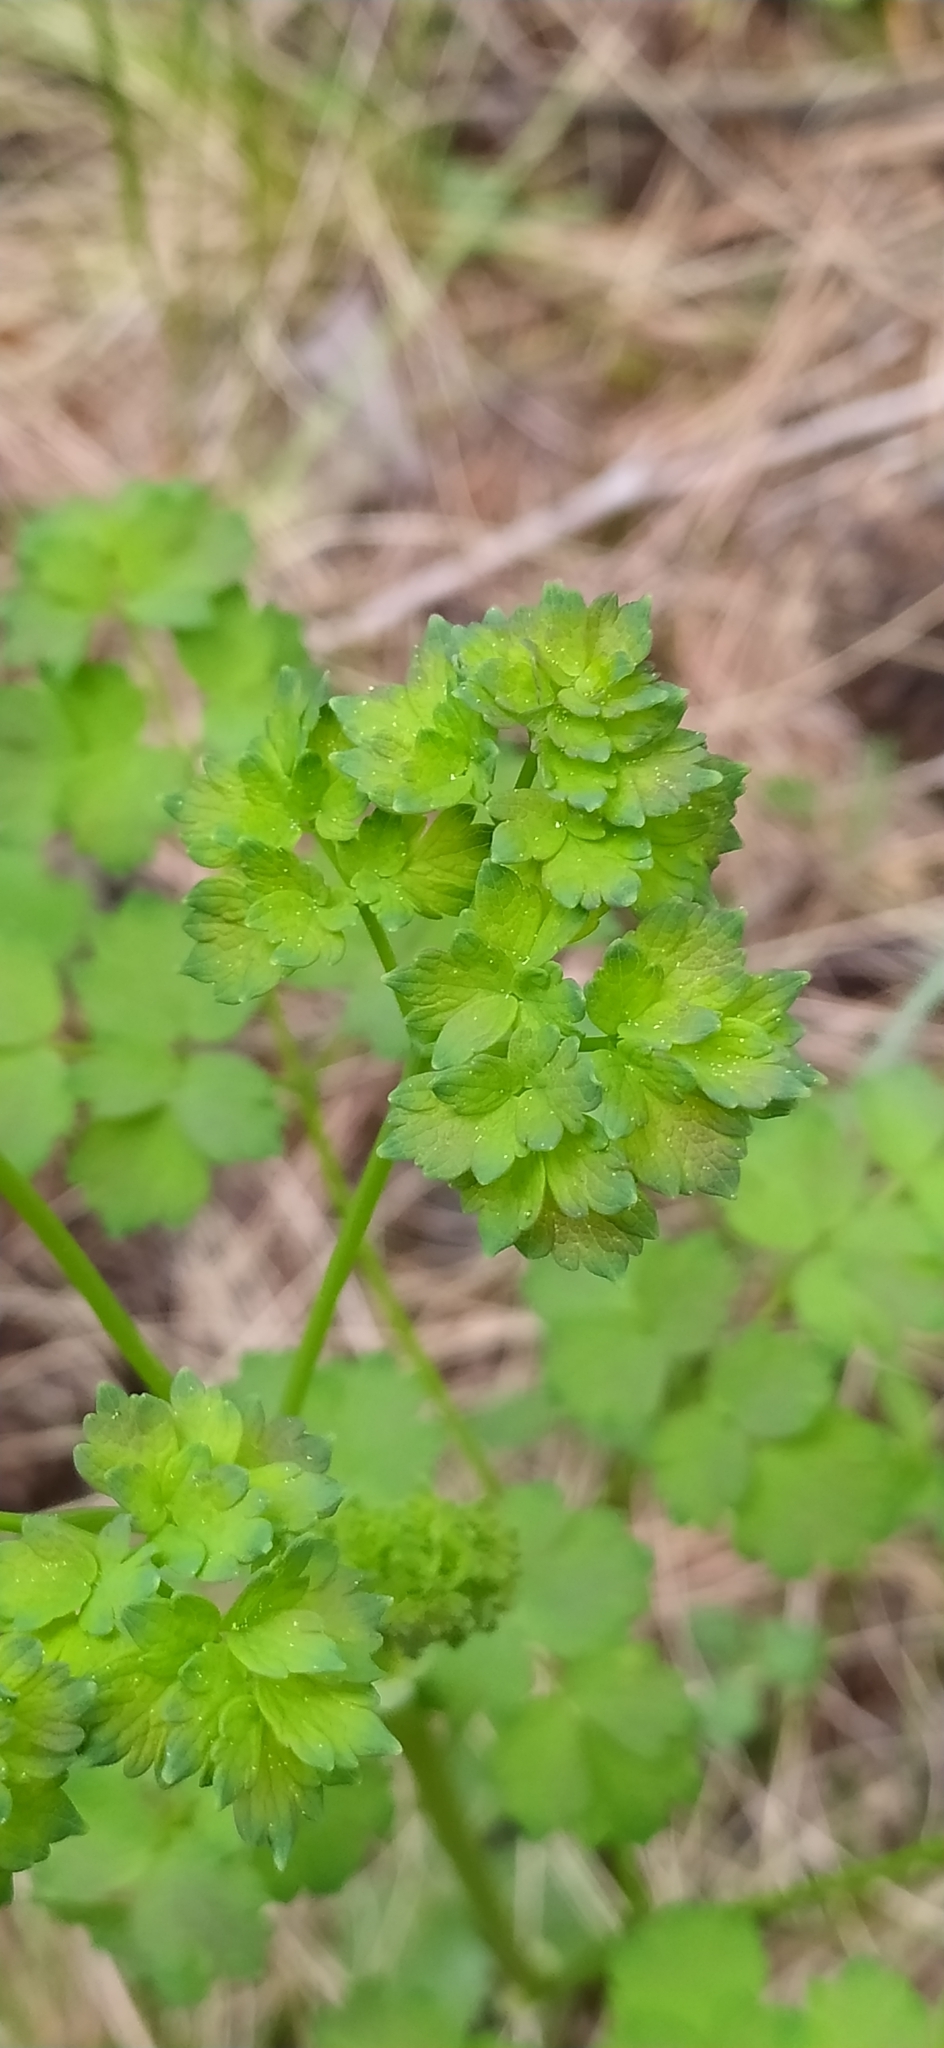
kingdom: Plantae
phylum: Tracheophyta
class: Magnoliopsida
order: Ranunculales
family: Ranunculaceae
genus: Thalictrum
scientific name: Thalictrum minus
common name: Lesser meadow-rue
